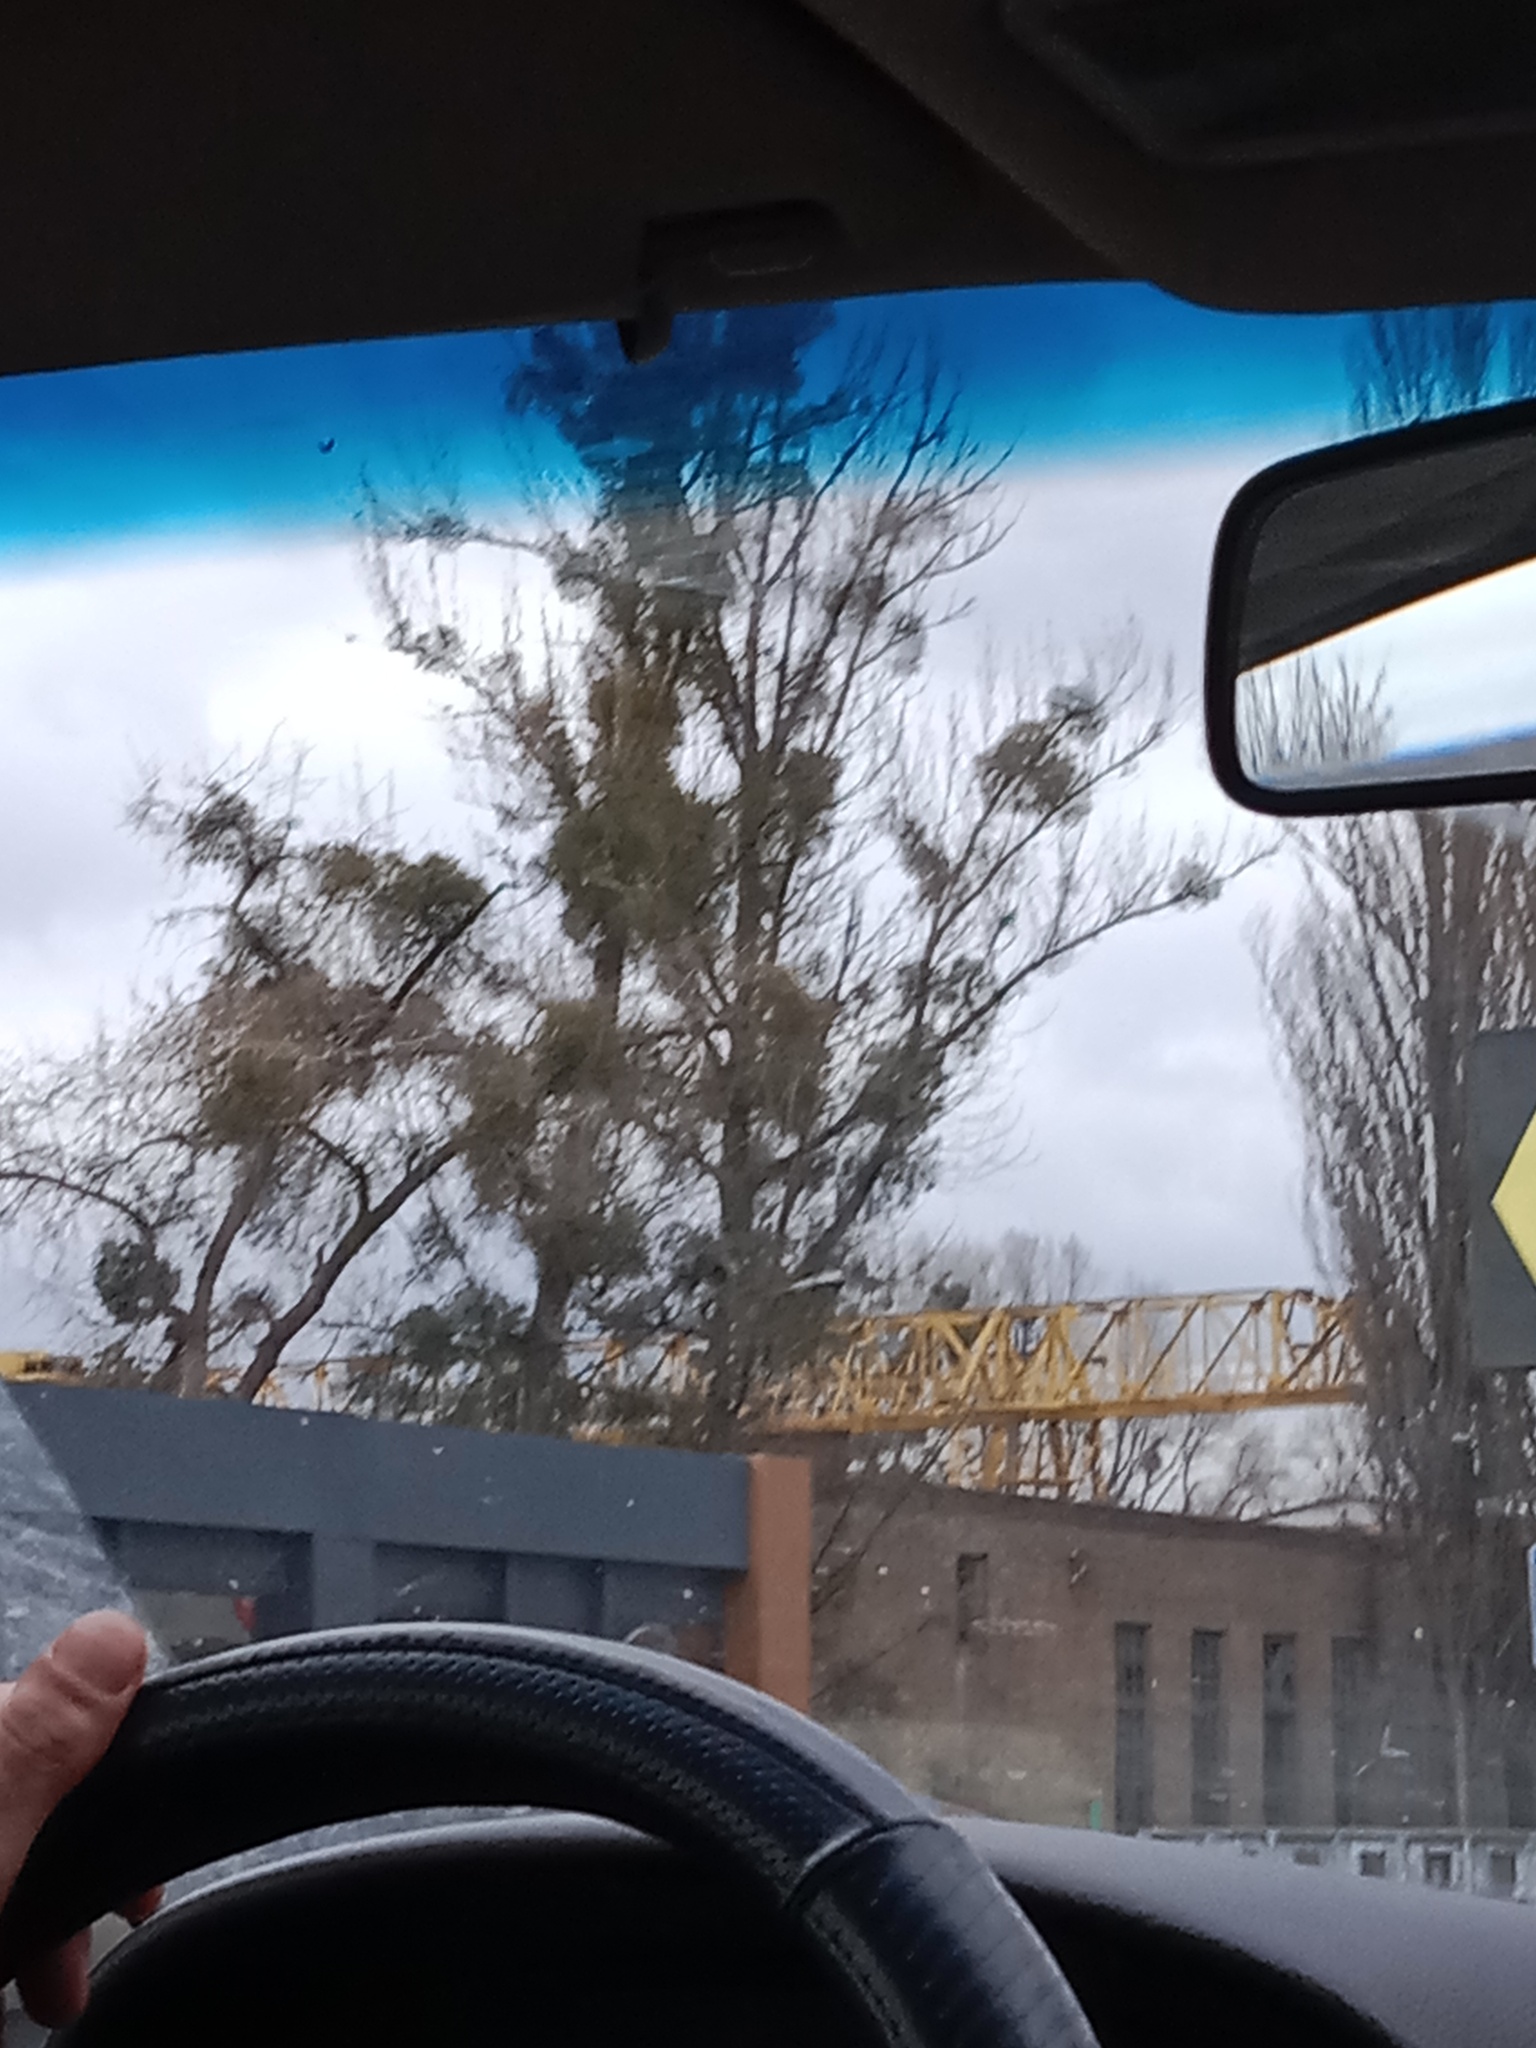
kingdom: Plantae
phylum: Tracheophyta
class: Magnoliopsida
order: Santalales
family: Viscaceae
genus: Viscum
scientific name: Viscum album
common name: Mistletoe
